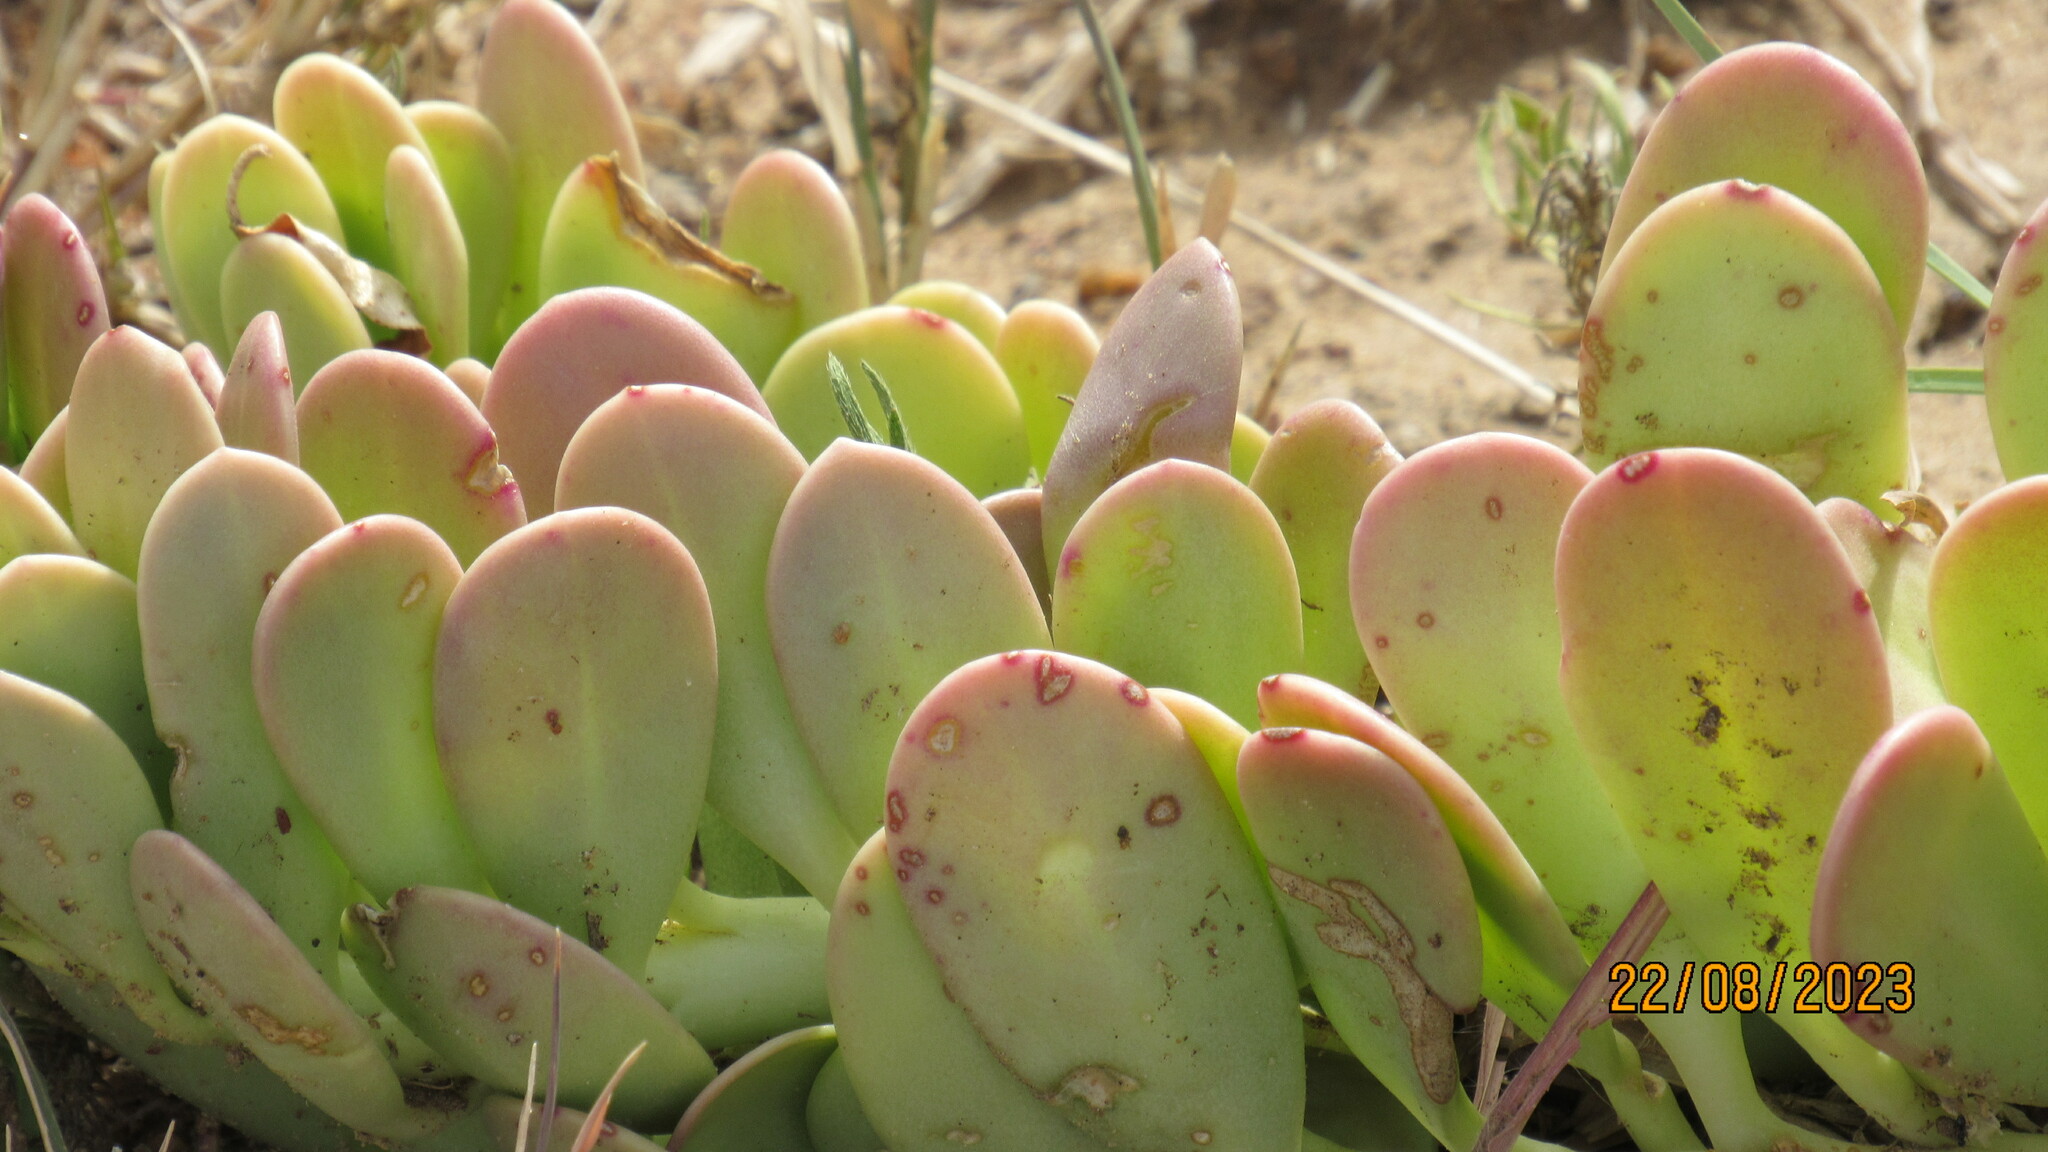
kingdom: Plantae
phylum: Tracheophyta
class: Magnoliopsida
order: Asterales
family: Asteraceae
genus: Kleinia
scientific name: Kleinia petraea
